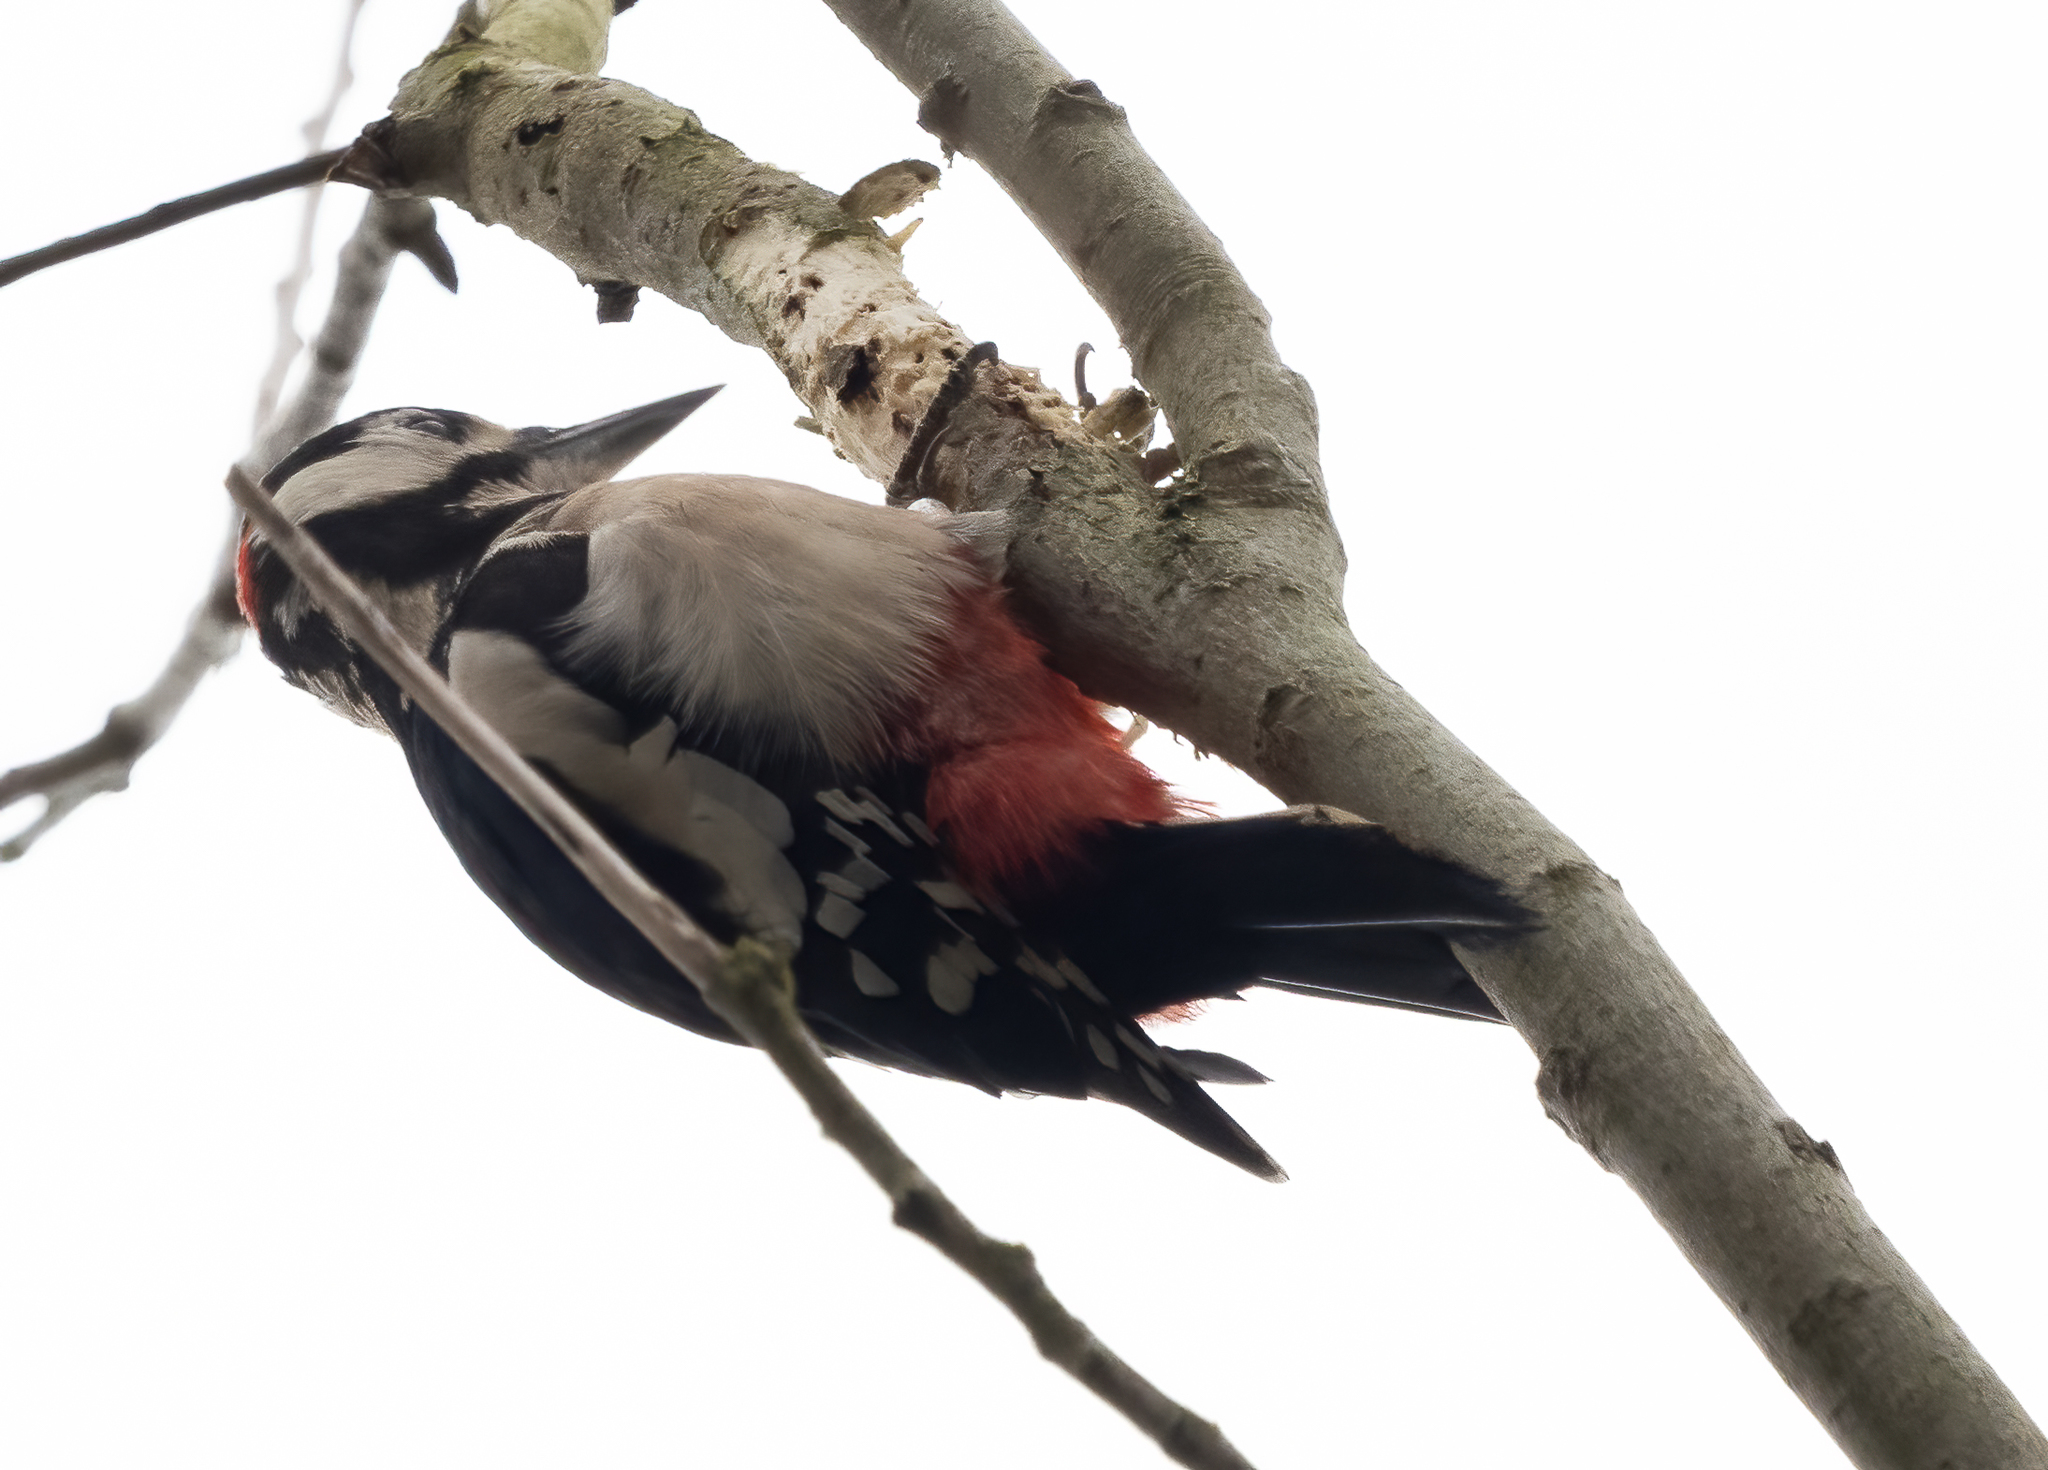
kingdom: Animalia
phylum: Chordata
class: Aves
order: Piciformes
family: Picidae
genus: Dendrocopos
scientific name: Dendrocopos major
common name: Great spotted woodpecker
